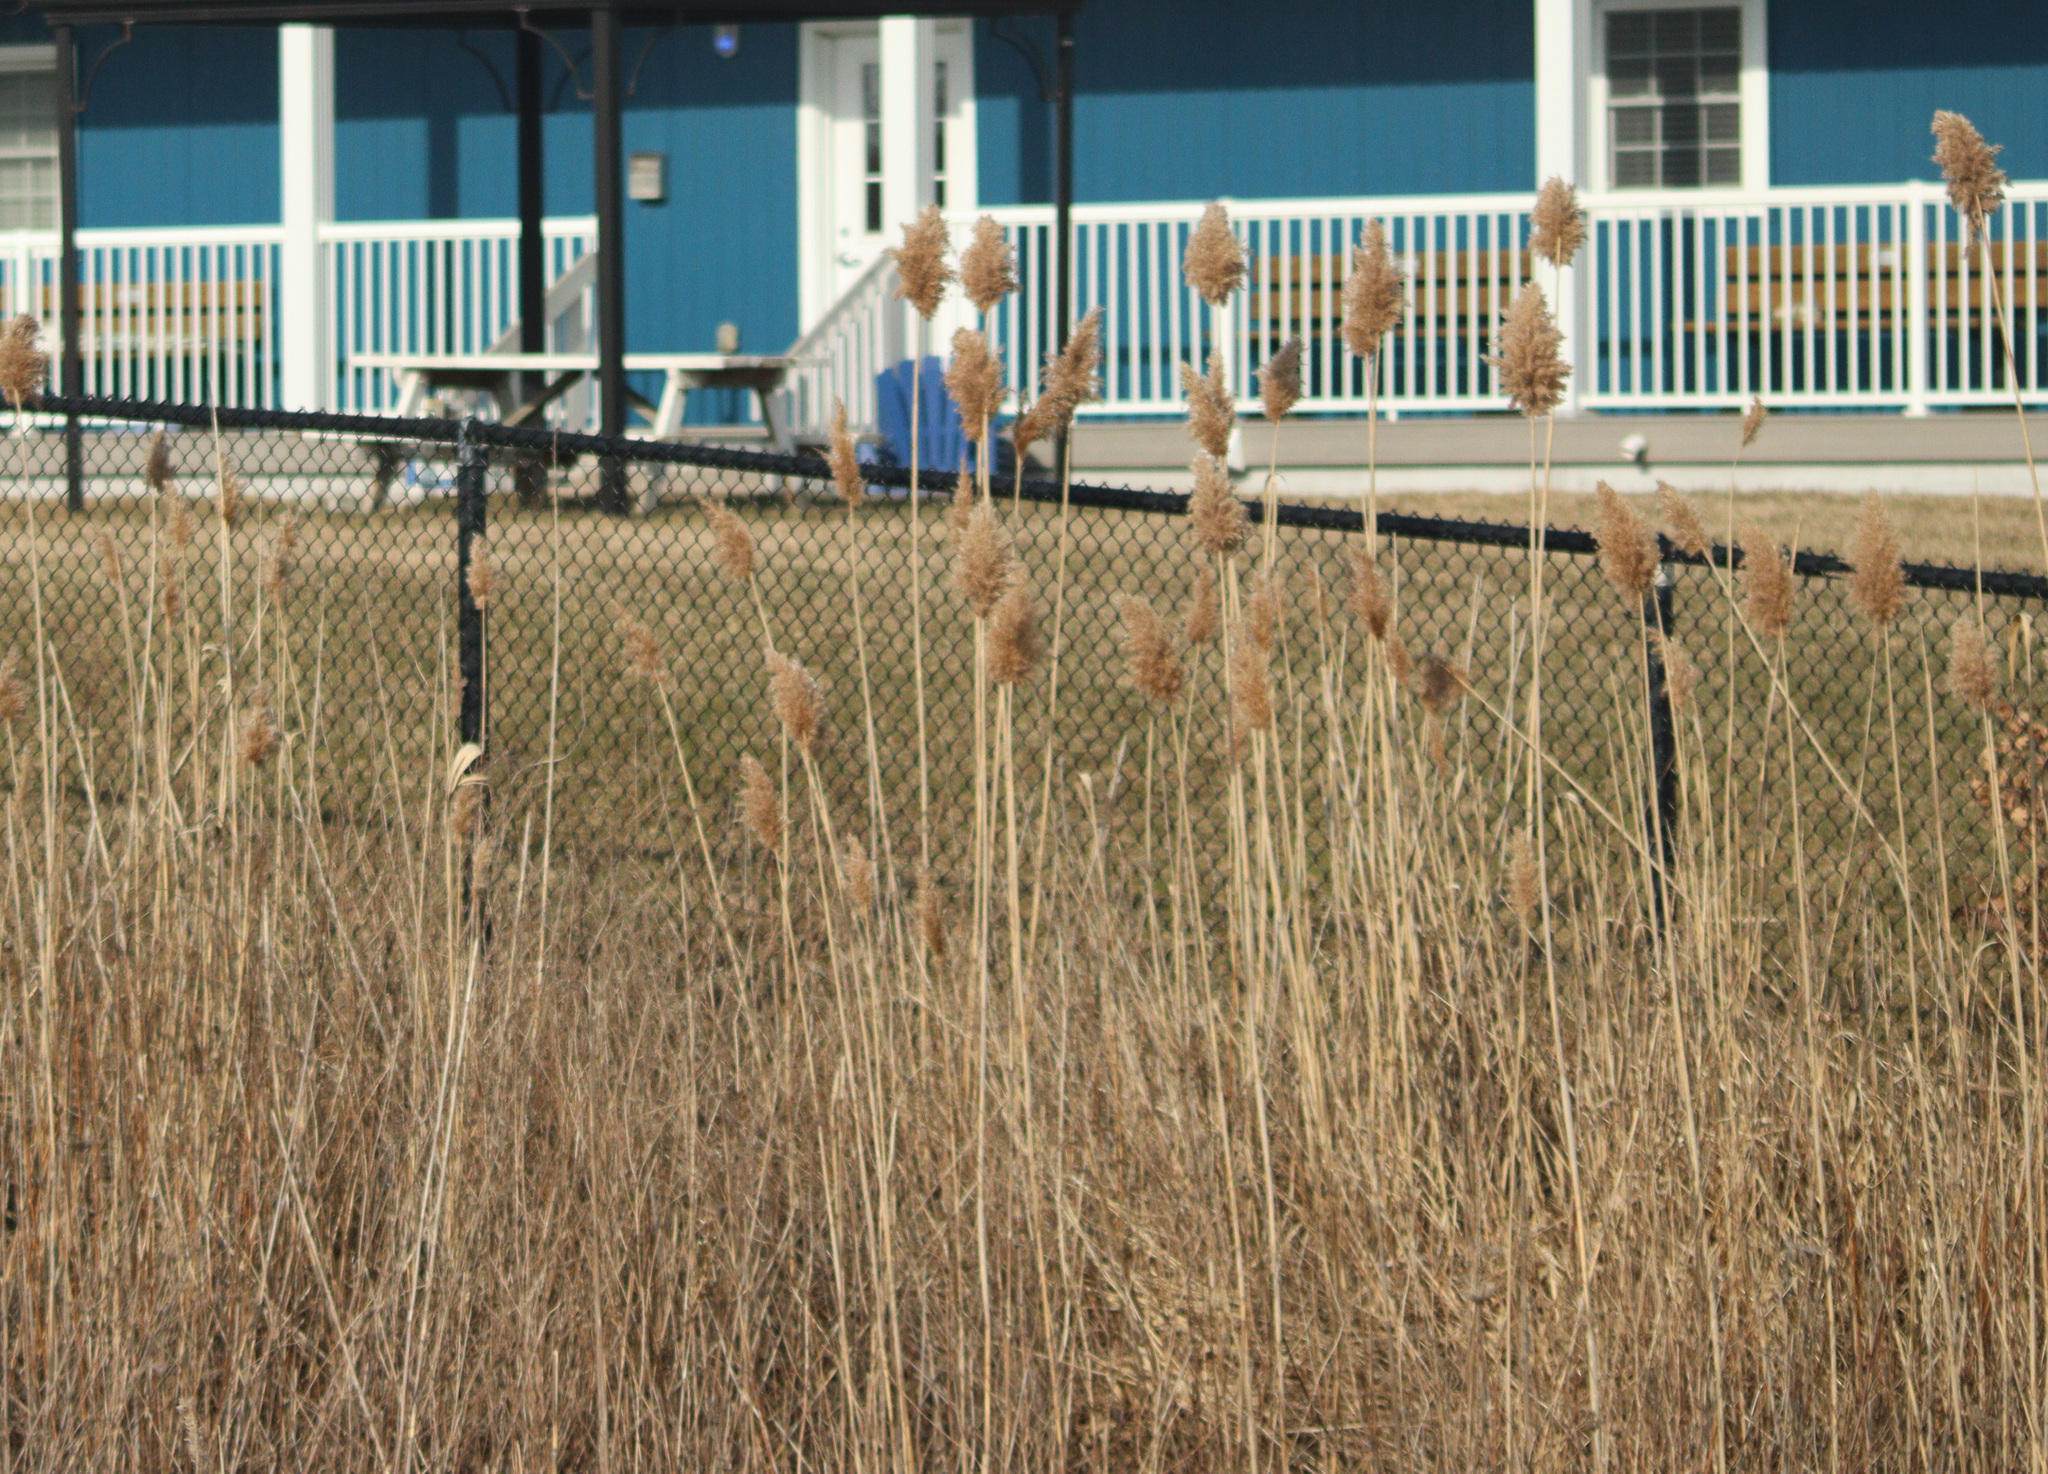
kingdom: Plantae
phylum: Tracheophyta
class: Liliopsida
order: Poales
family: Poaceae
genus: Phragmites
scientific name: Phragmites australis
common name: Common reed
